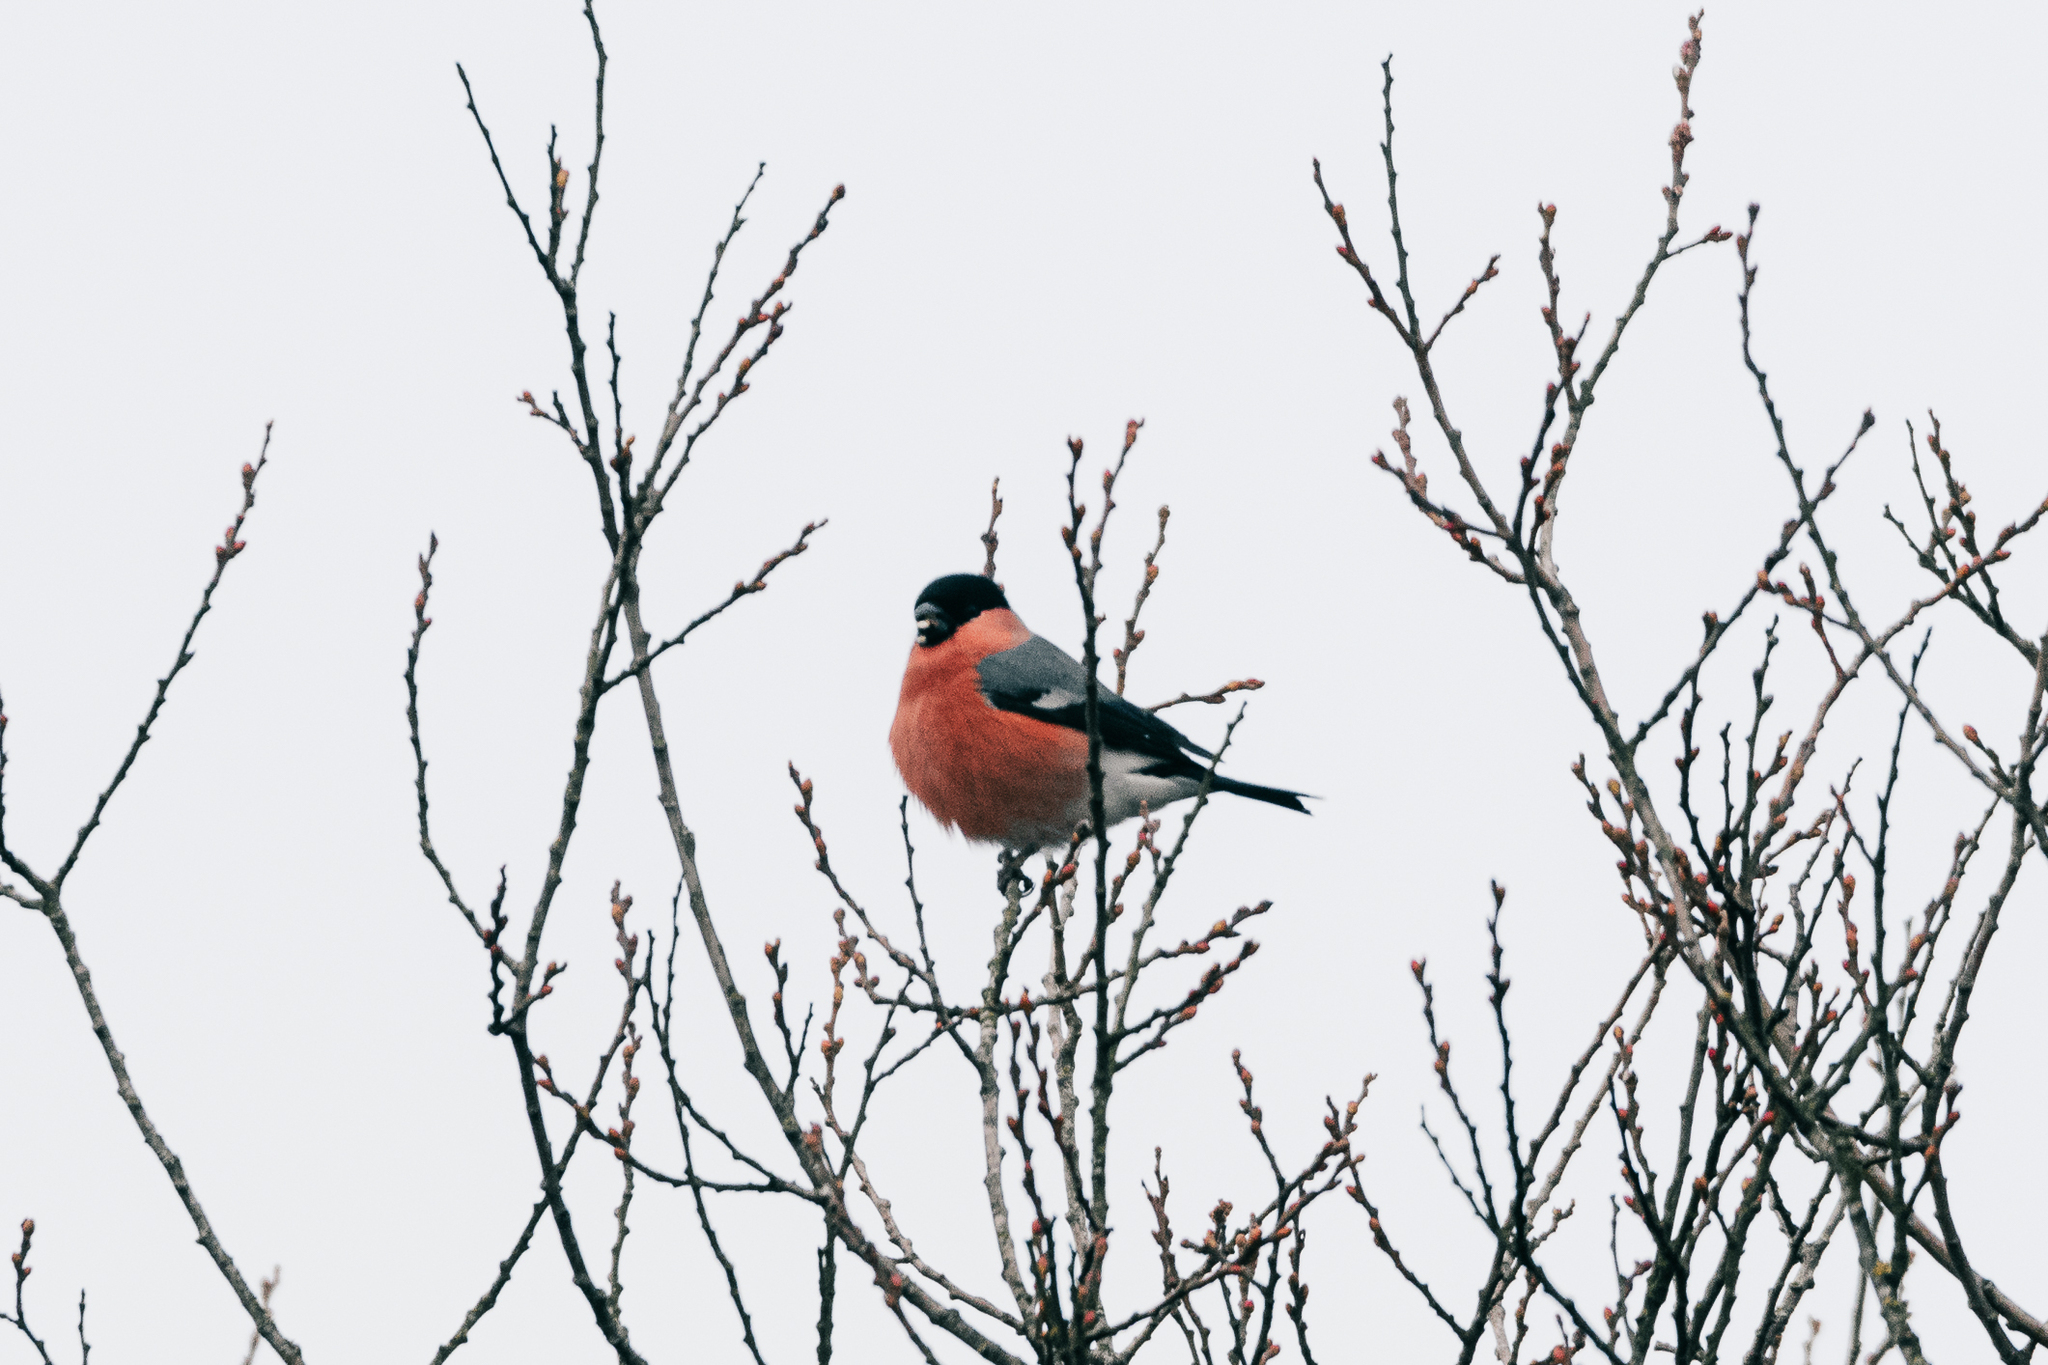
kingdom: Animalia
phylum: Chordata
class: Aves
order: Passeriformes
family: Fringillidae
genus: Pyrrhula
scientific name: Pyrrhula pyrrhula
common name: Eurasian bullfinch
